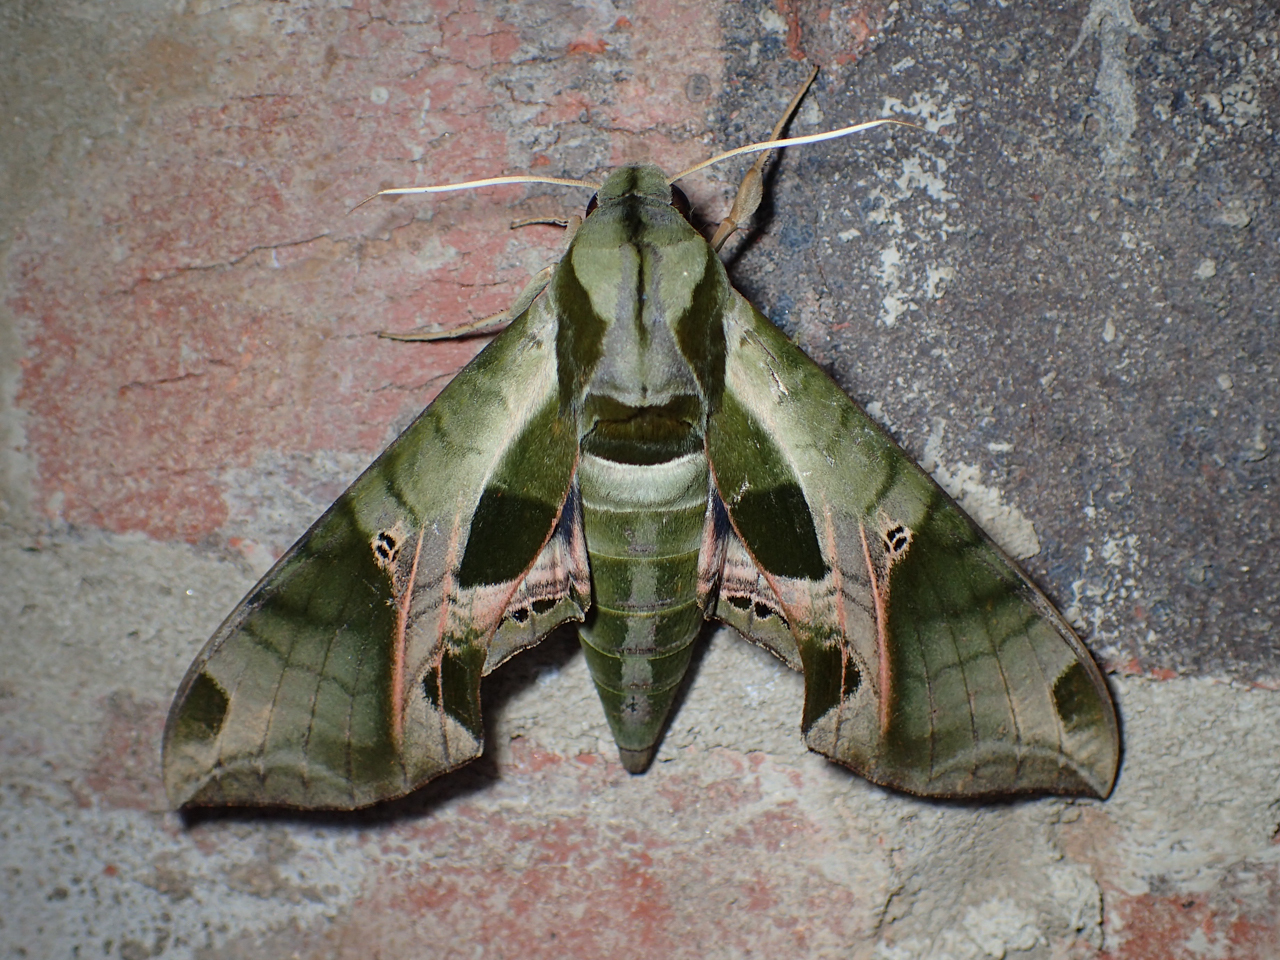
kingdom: Animalia
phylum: Arthropoda
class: Insecta
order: Lepidoptera
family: Sphingidae
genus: Eumorpha
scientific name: Eumorpha pandorus
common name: Pandora sphinx
